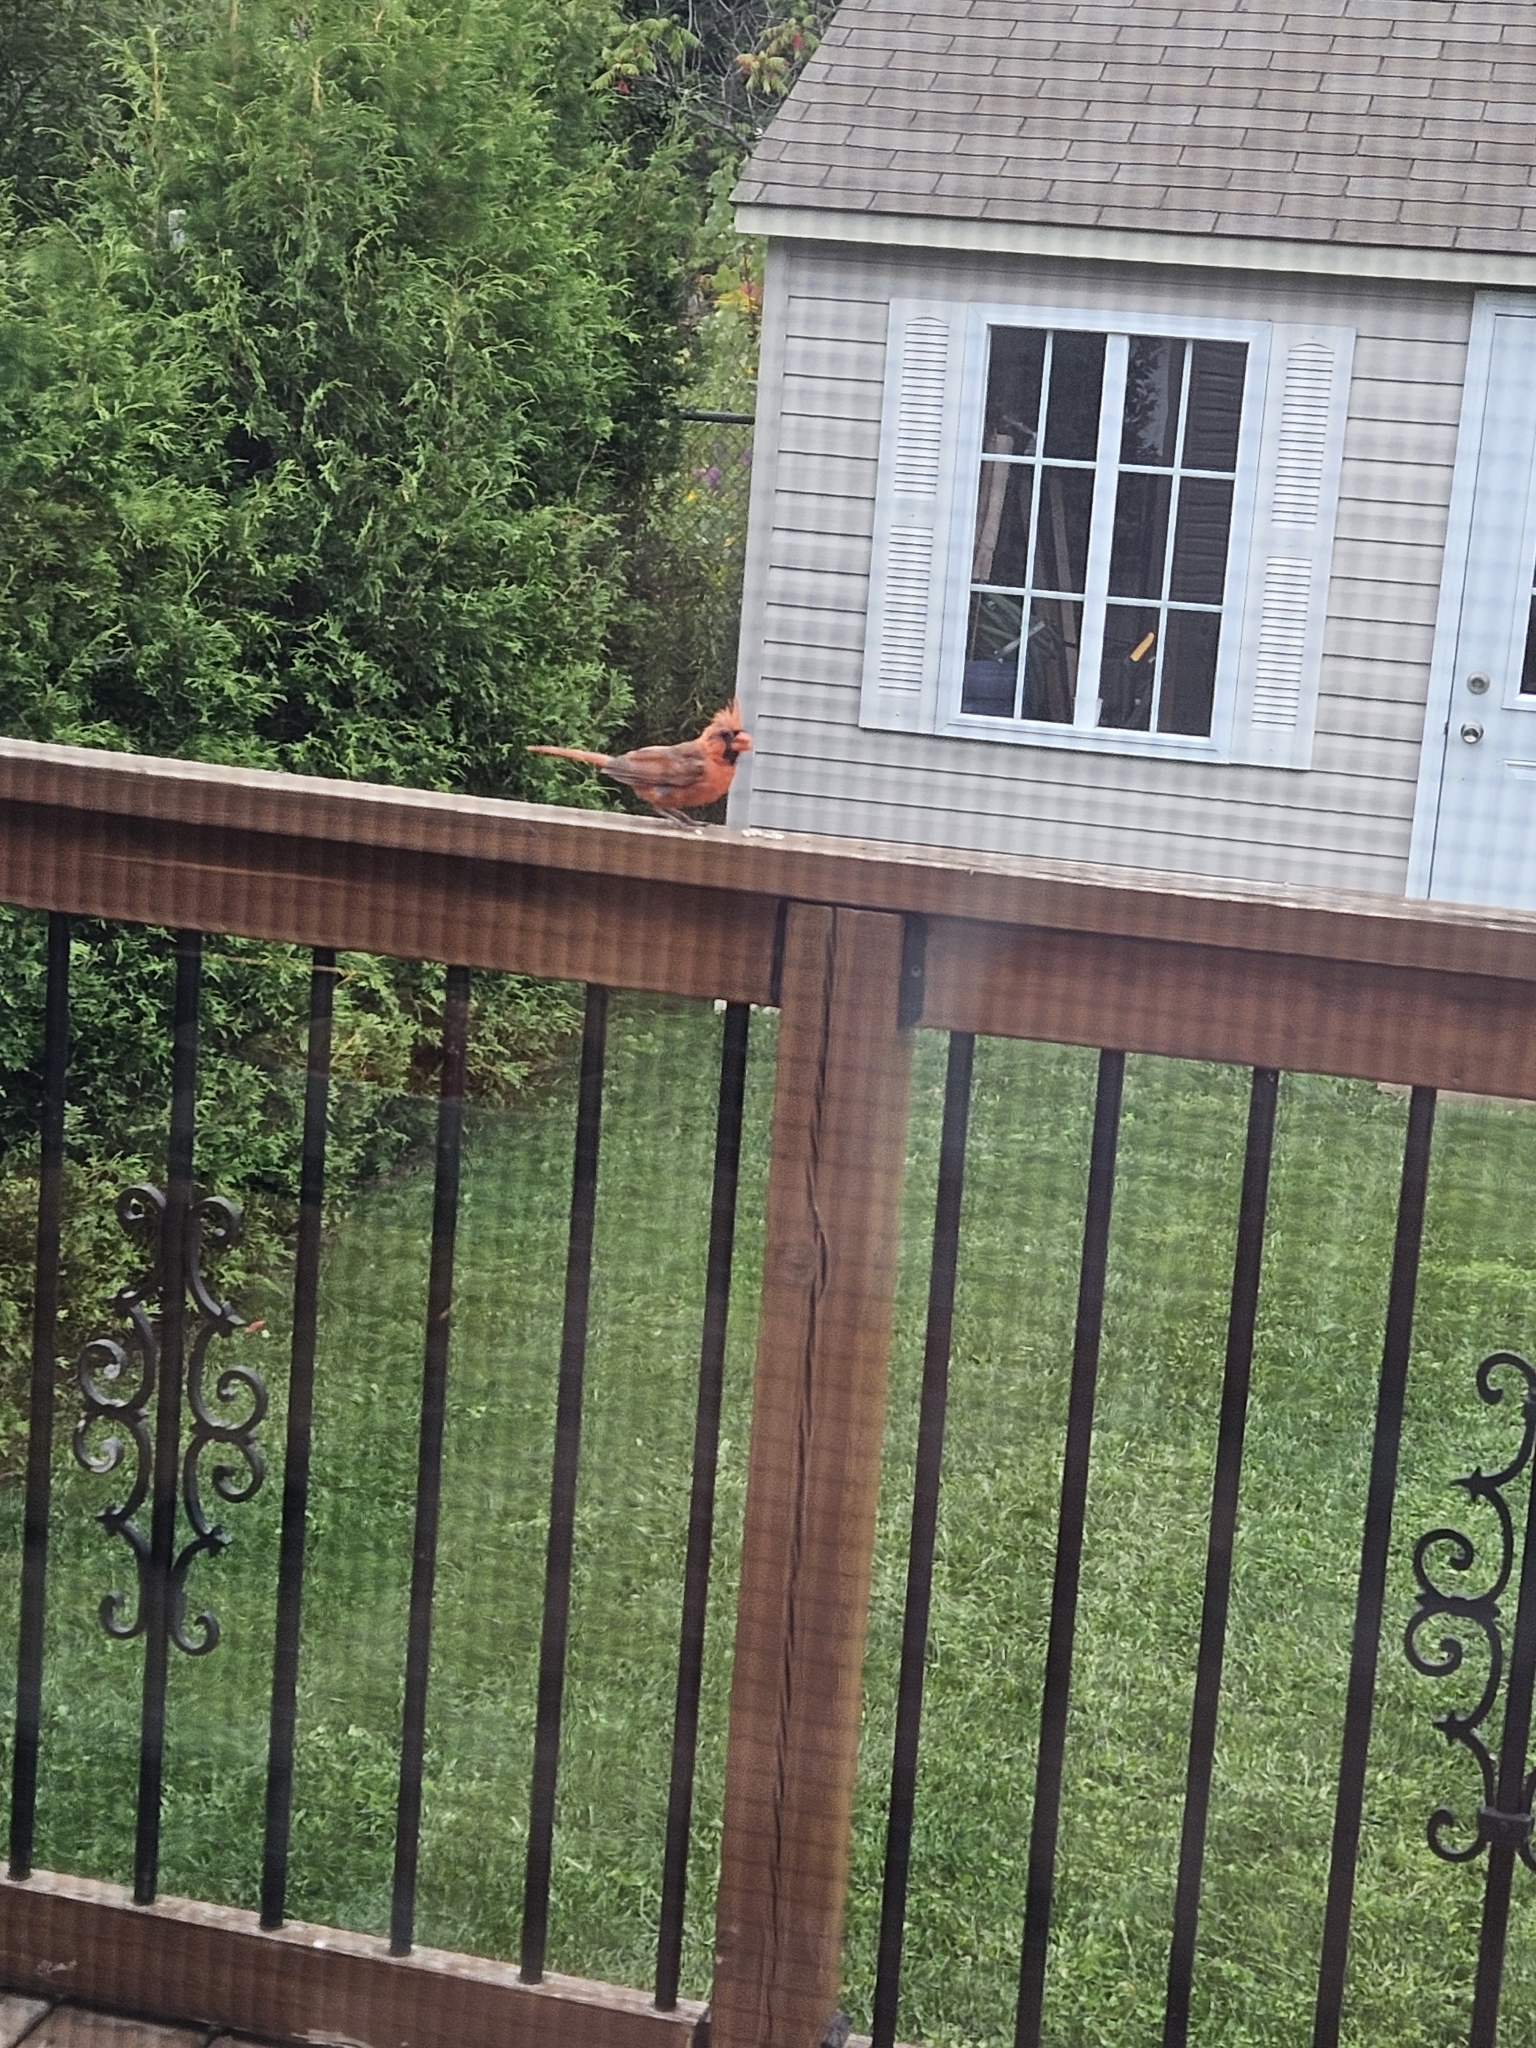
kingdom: Animalia
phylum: Chordata
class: Aves
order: Passeriformes
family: Cardinalidae
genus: Cardinalis
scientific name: Cardinalis cardinalis
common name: Northern cardinal
